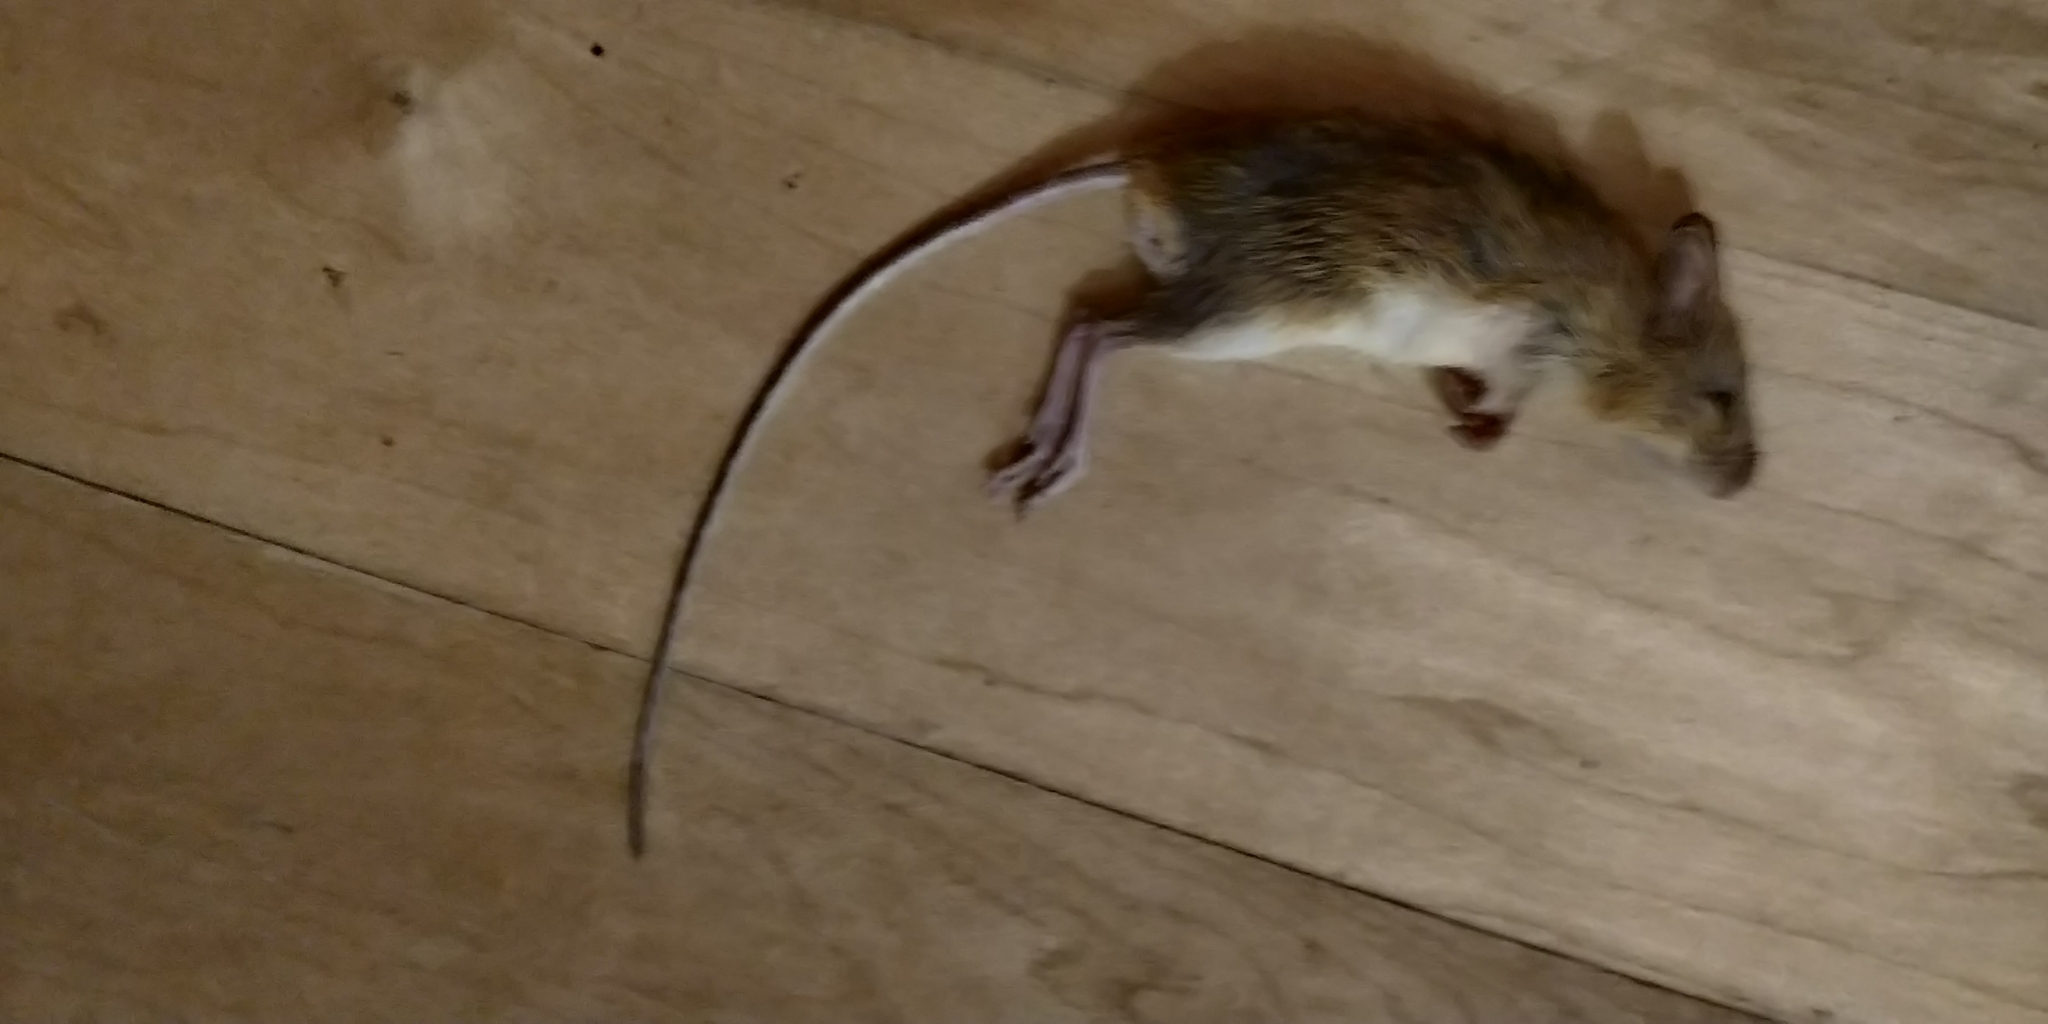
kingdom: Animalia
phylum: Chordata
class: Mammalia
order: Rodentia
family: Dipodidae
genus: Zapus
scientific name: Zapus hudsonius
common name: Meadow jumping mouse
